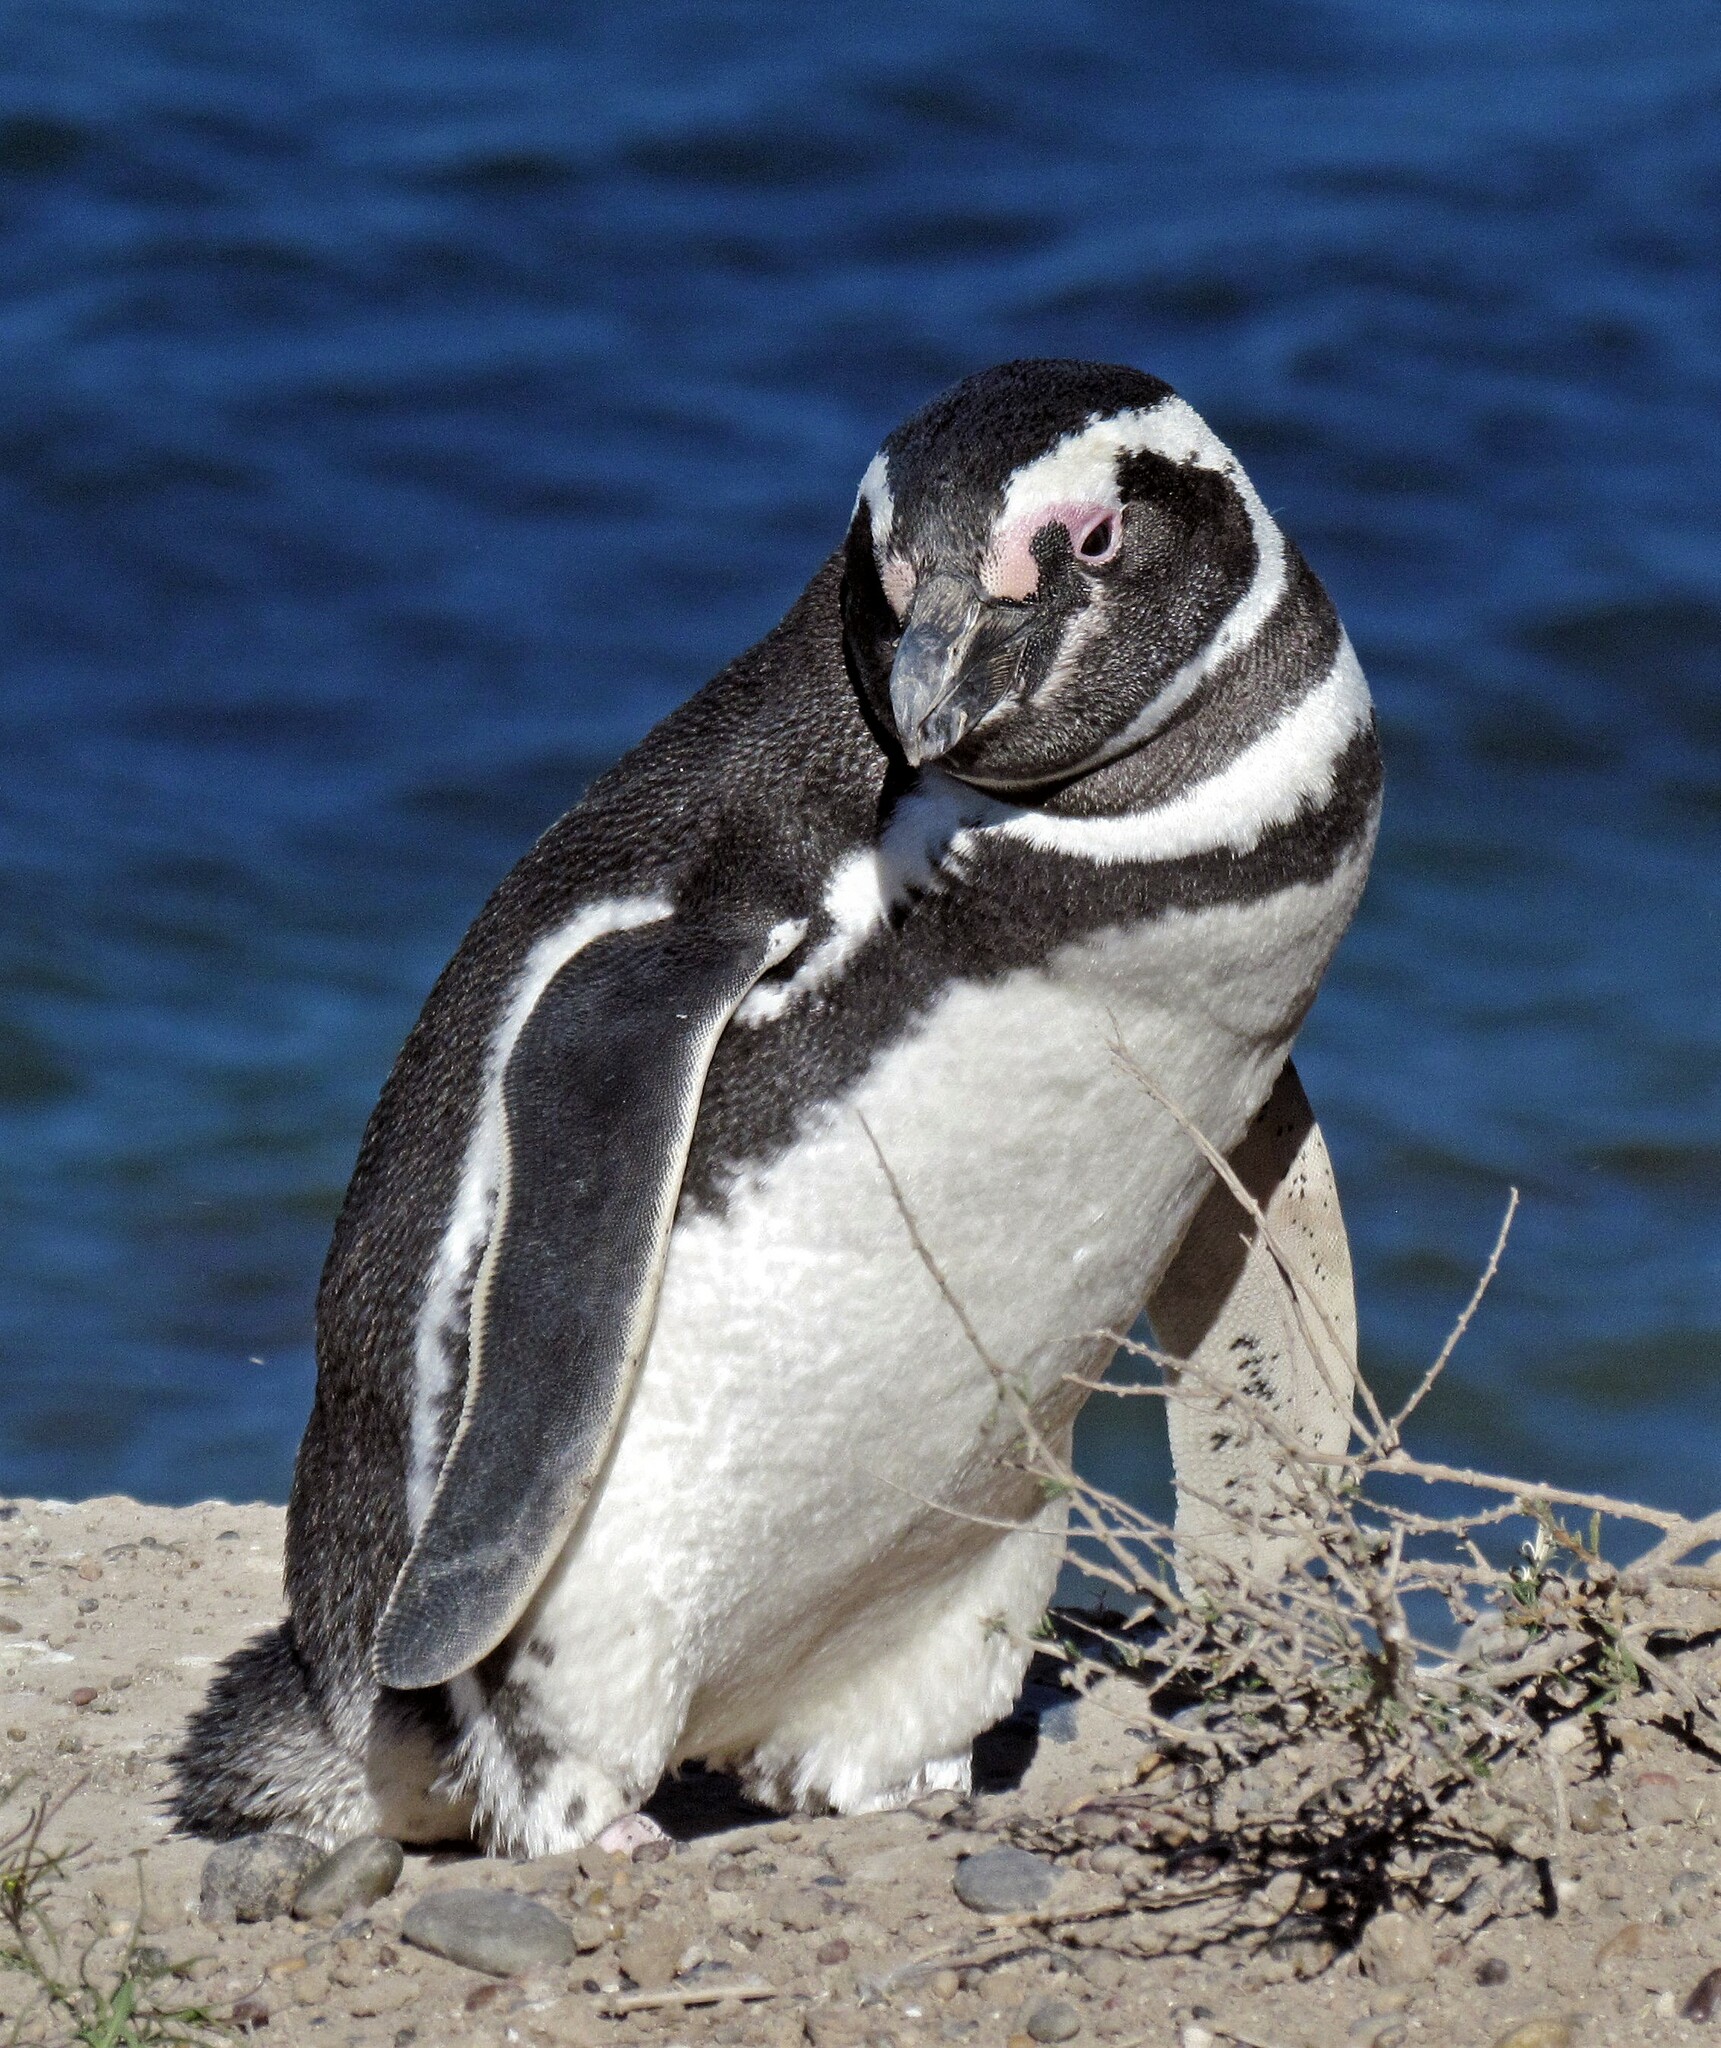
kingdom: Animalia
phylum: Chordata
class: Aves
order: Sphenisciformes
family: Spheniscidae
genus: Spheniscus
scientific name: Spheniscus magellanicus
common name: Magellanic penguin
